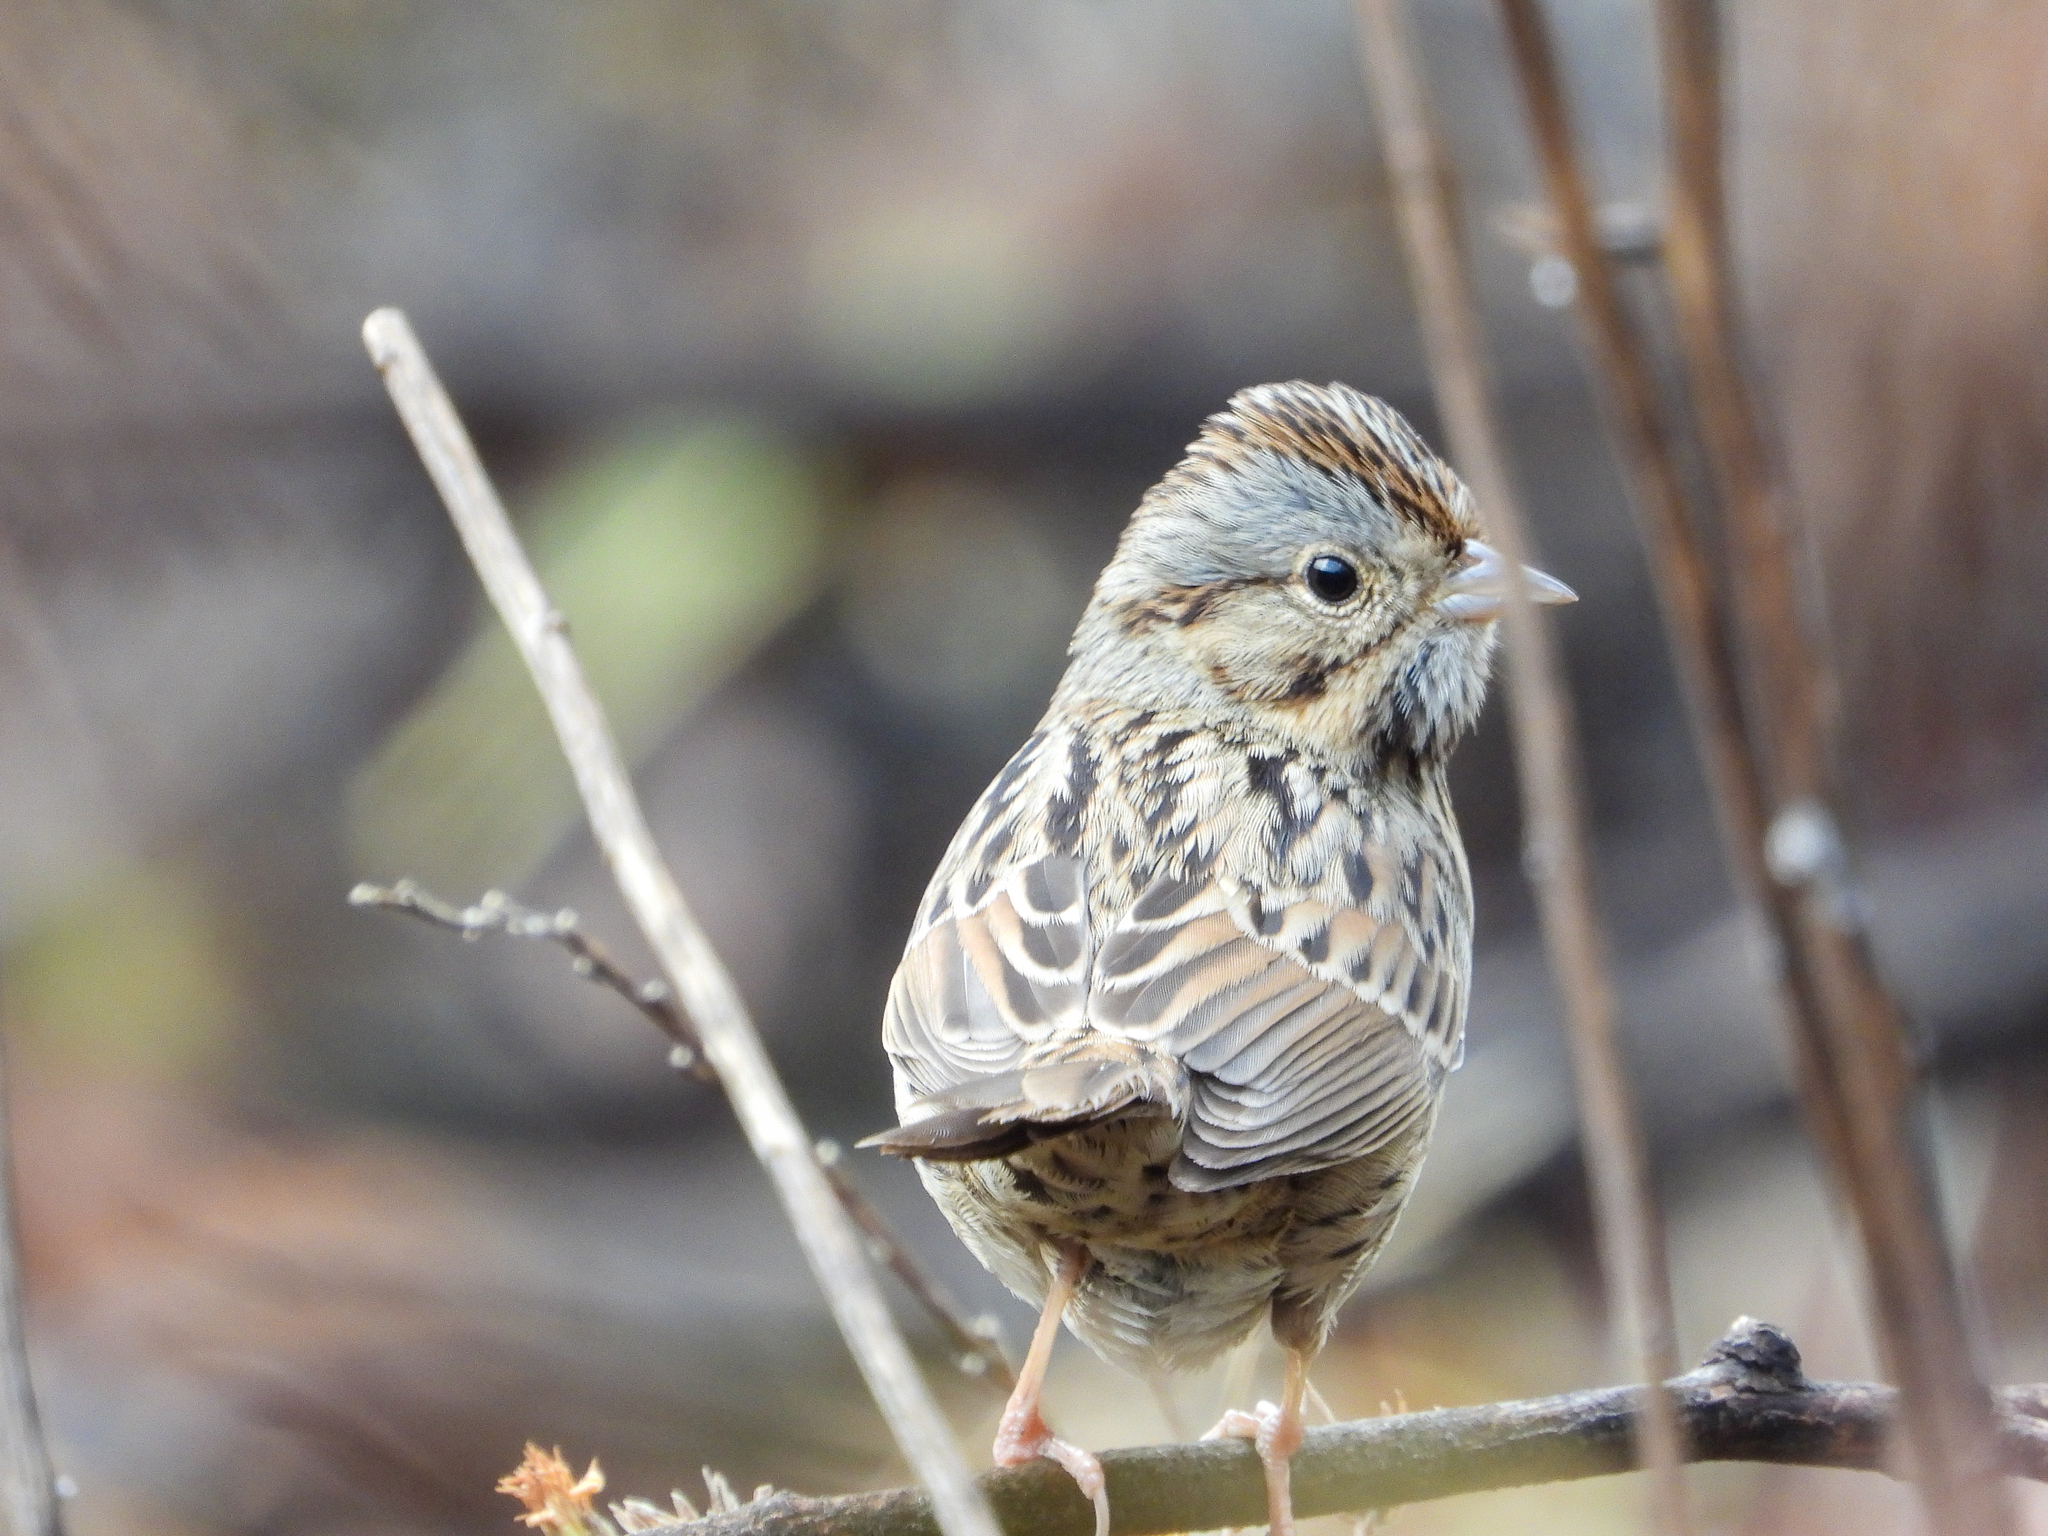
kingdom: Animalia
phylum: Chordata
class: Aves
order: Passeriformes
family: Passerellidae
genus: Melospiza
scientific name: Melospiza lincolnii
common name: Lincoln's sparrow
